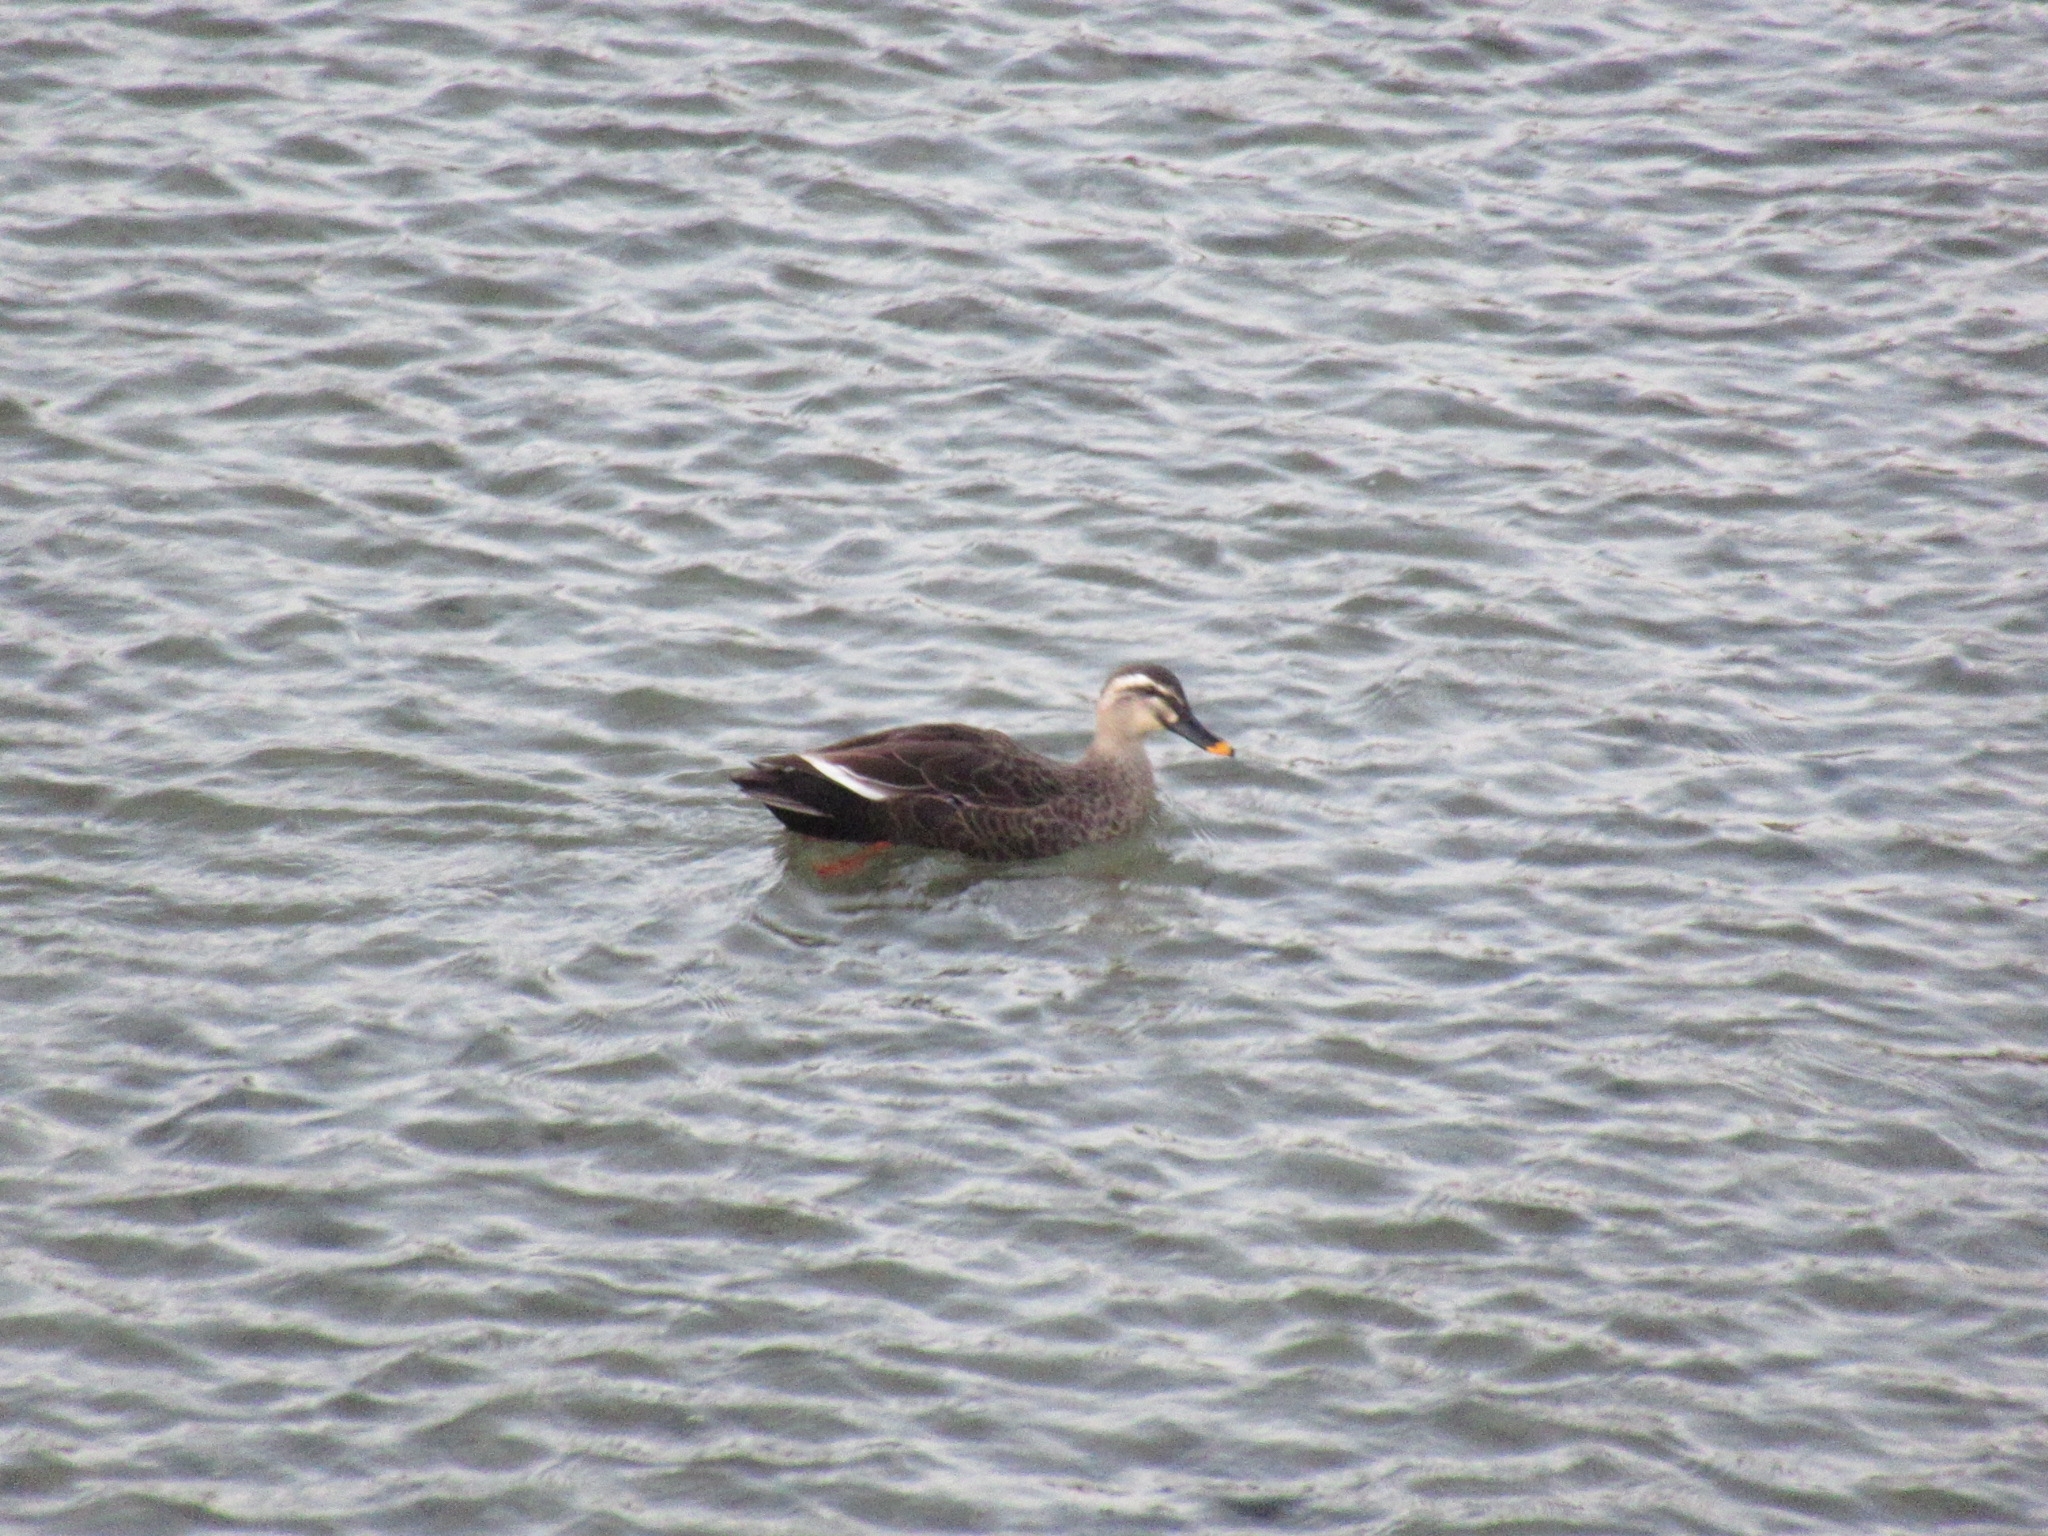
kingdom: Animalia
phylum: Chordata
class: Aves
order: Anseriformes
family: Anatidae
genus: Anas
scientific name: Anas zonorhyncha
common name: Eastern spot-billed duck
